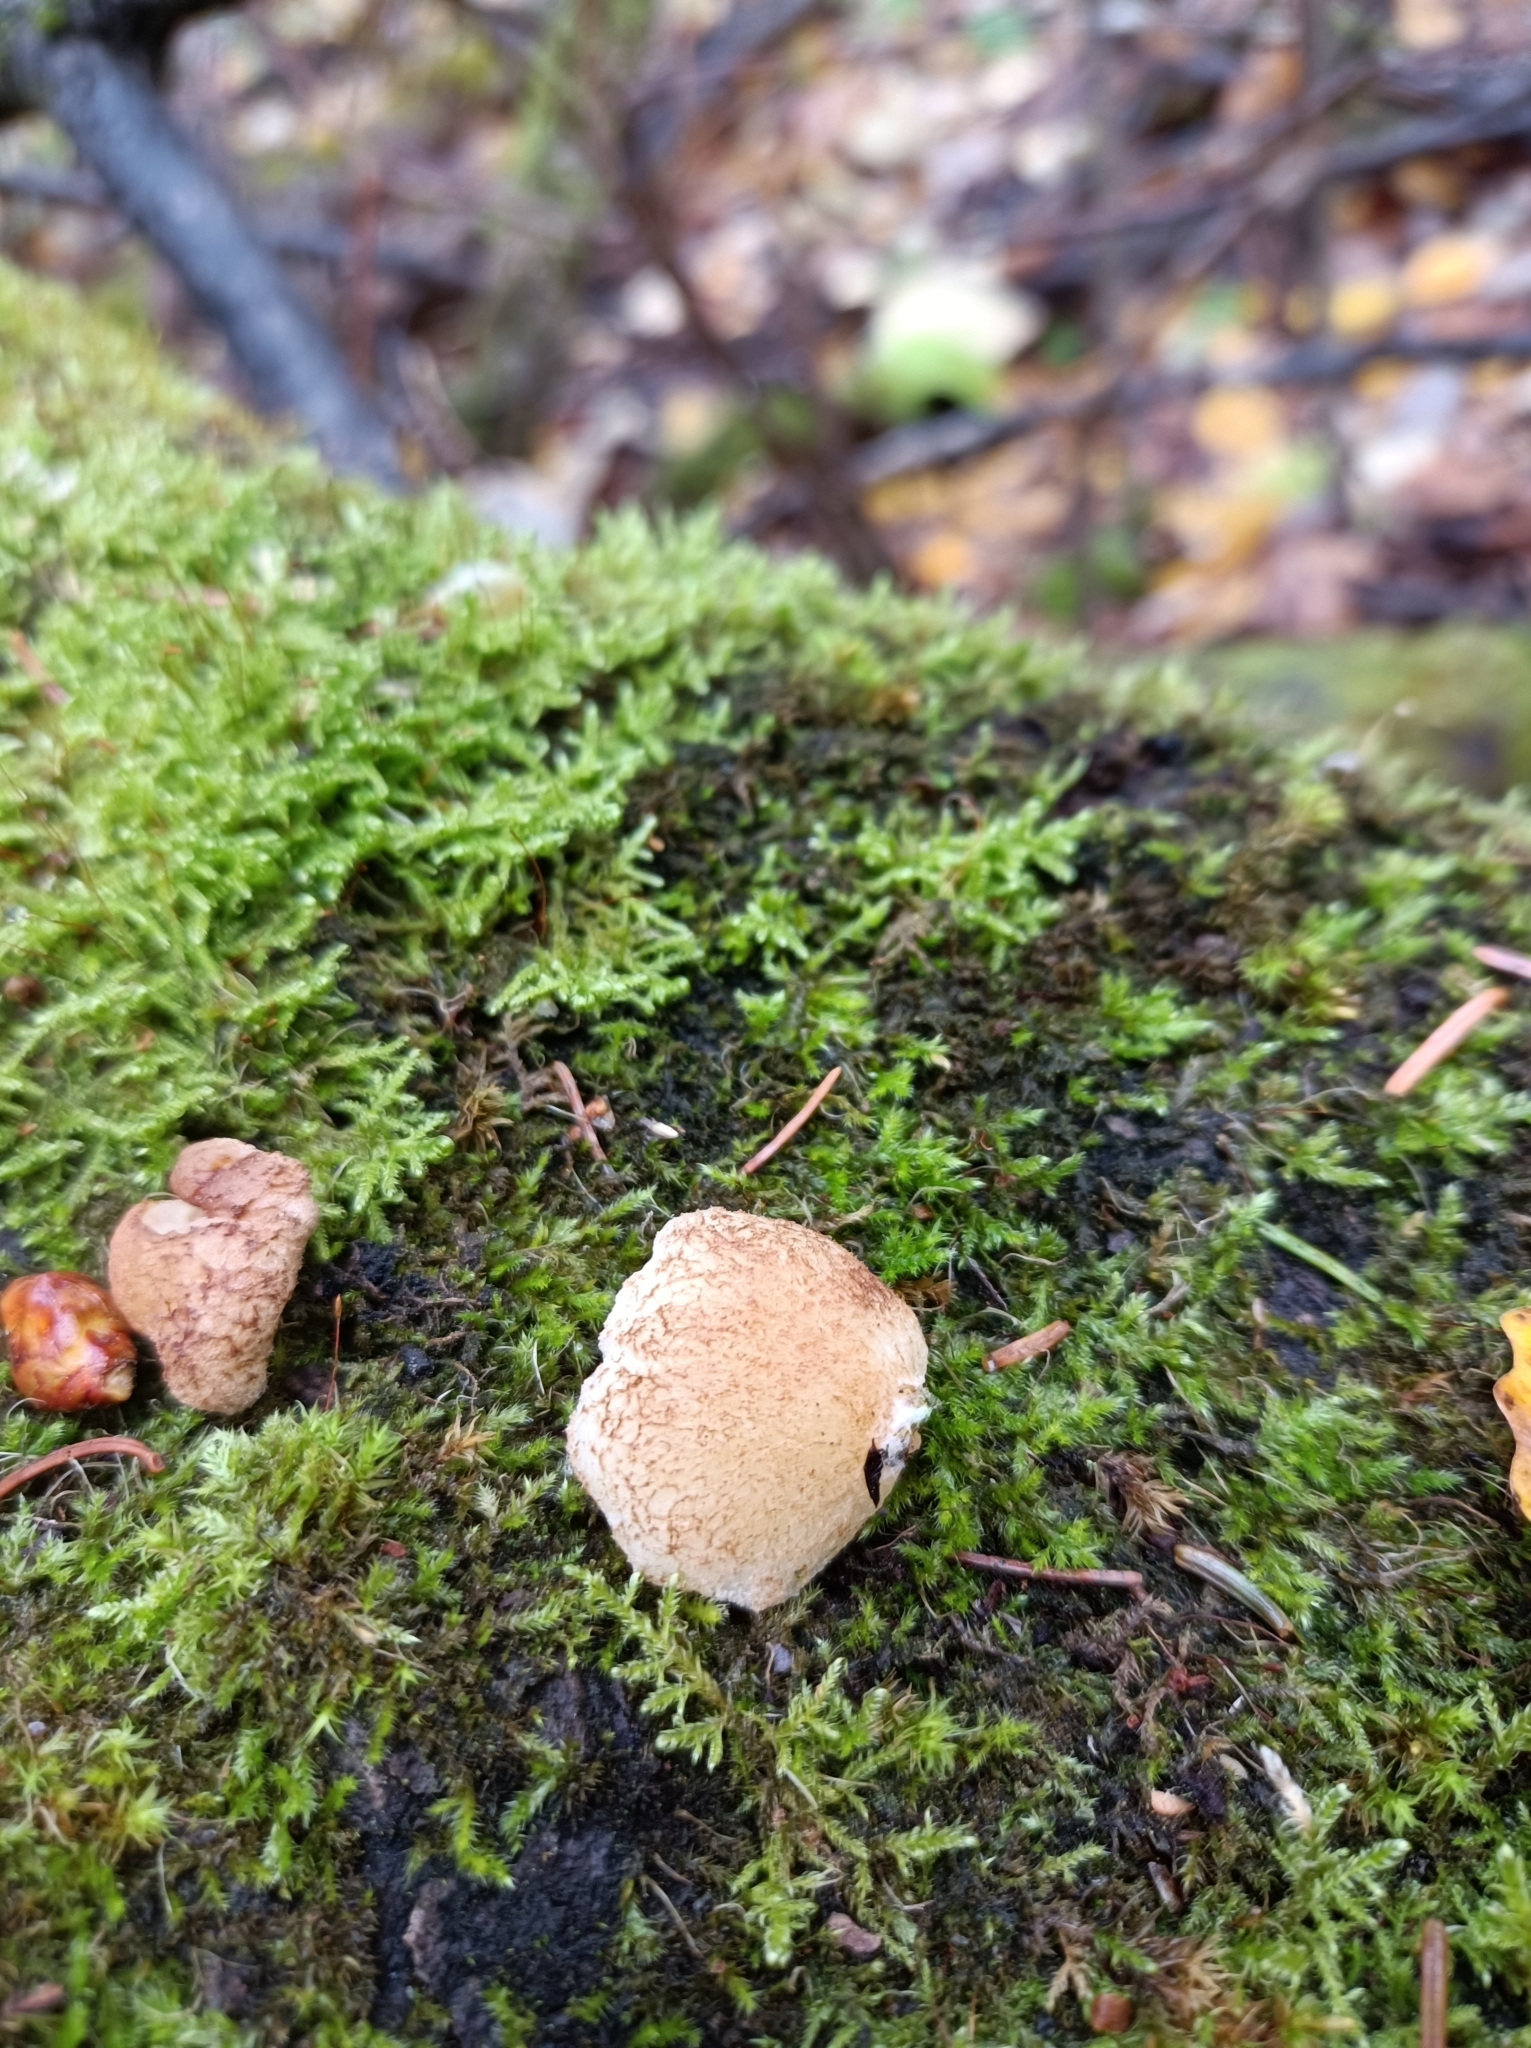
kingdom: Fungi
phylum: Basidiomycota
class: Agaricomycetes
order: Agaricales
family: Crepidotaceae
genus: Crepidotus
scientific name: Crepidotus mollis
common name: Peeling oysterling
